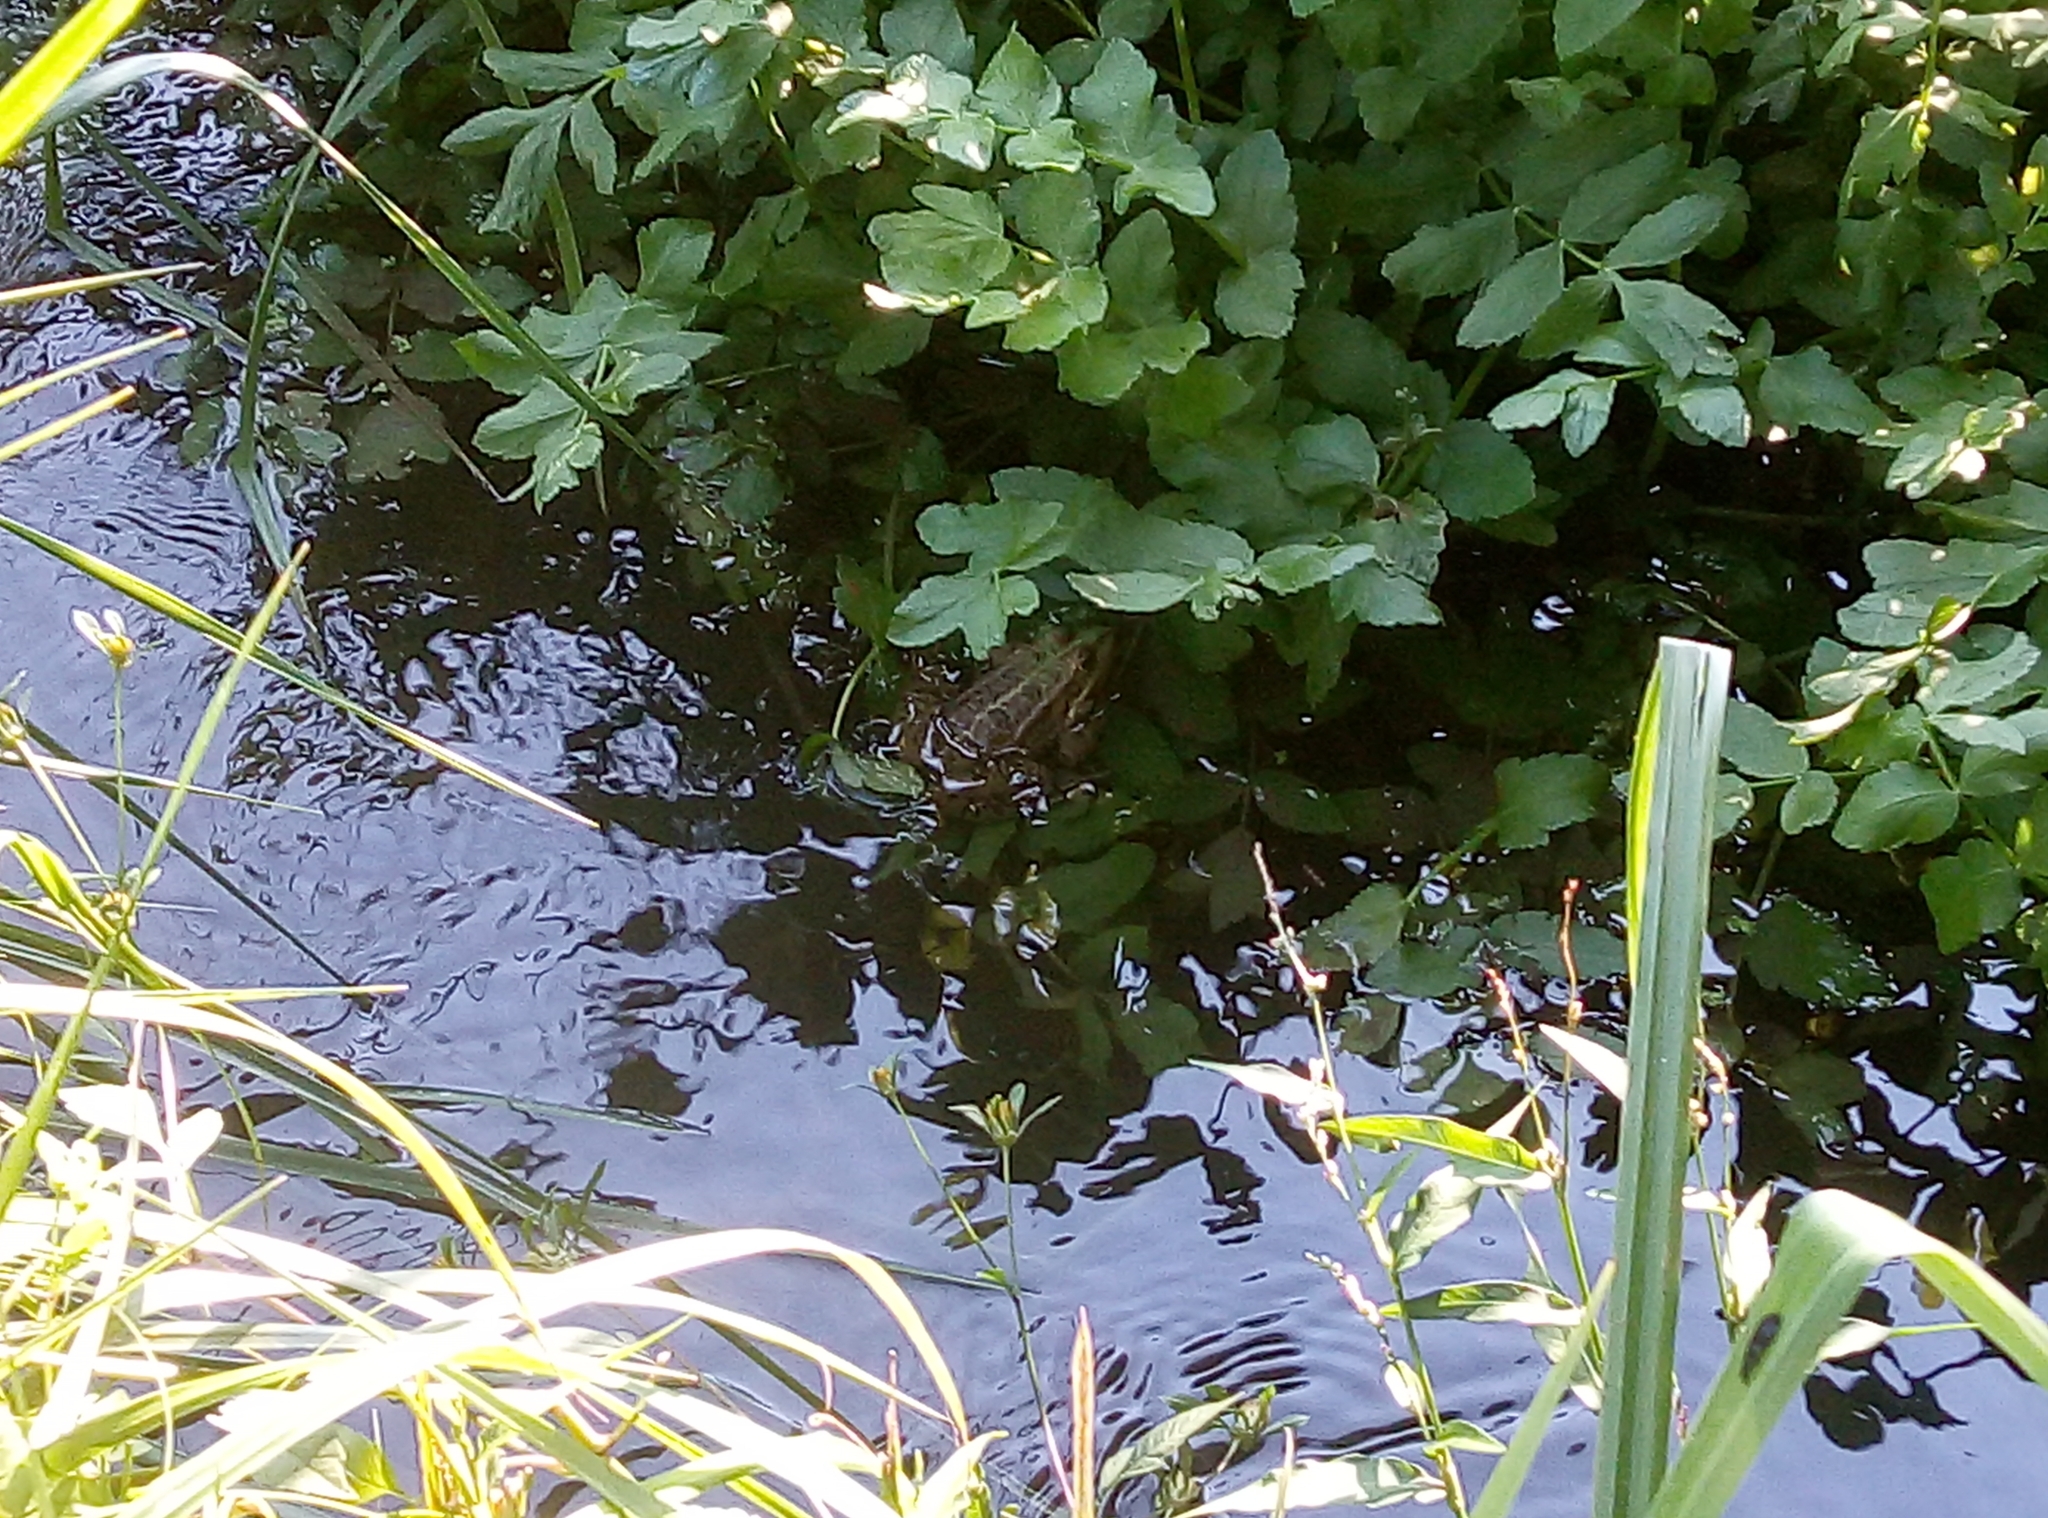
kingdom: Animalia
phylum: Chordata
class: Amphibia
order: Anura
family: Ranidae
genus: Pelophylax
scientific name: Pelophylax
